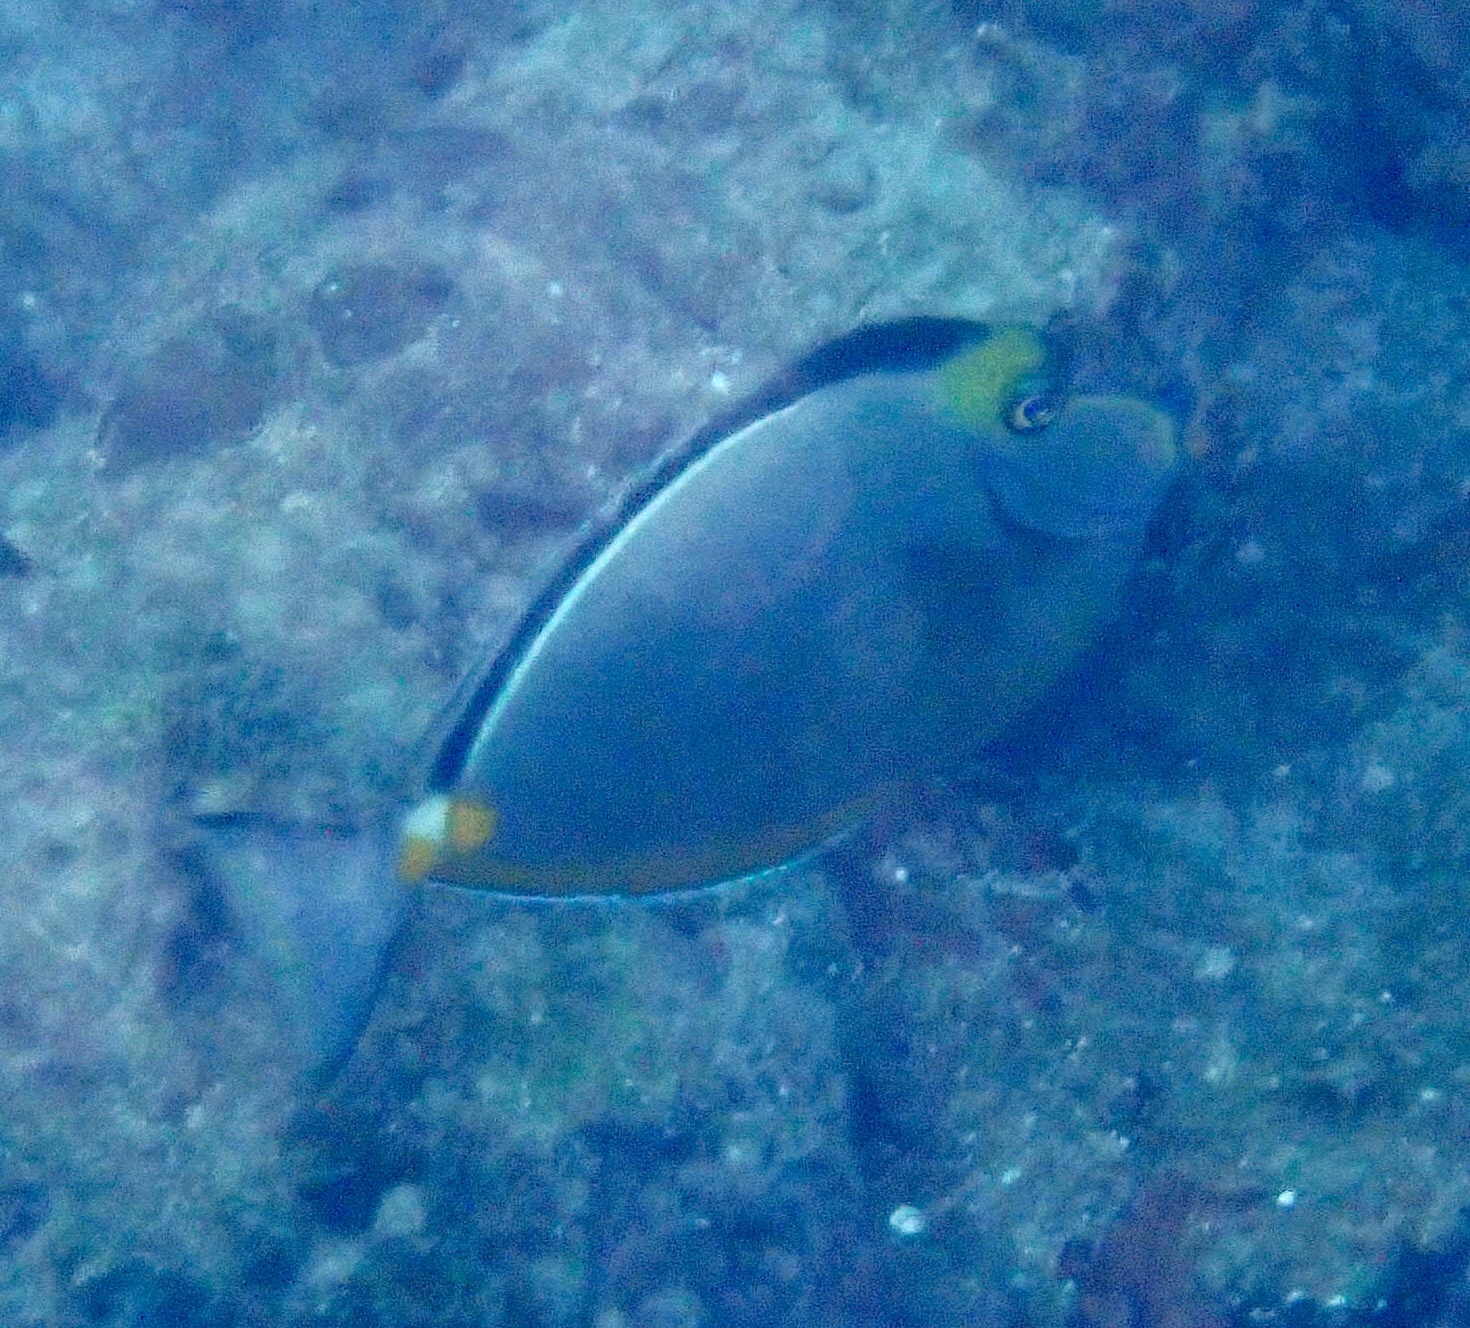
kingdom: Animalia
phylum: Chordata
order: Perciformes
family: Acanthuridae
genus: Naso
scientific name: Naso lituratus
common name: Orangespine unicornfish
